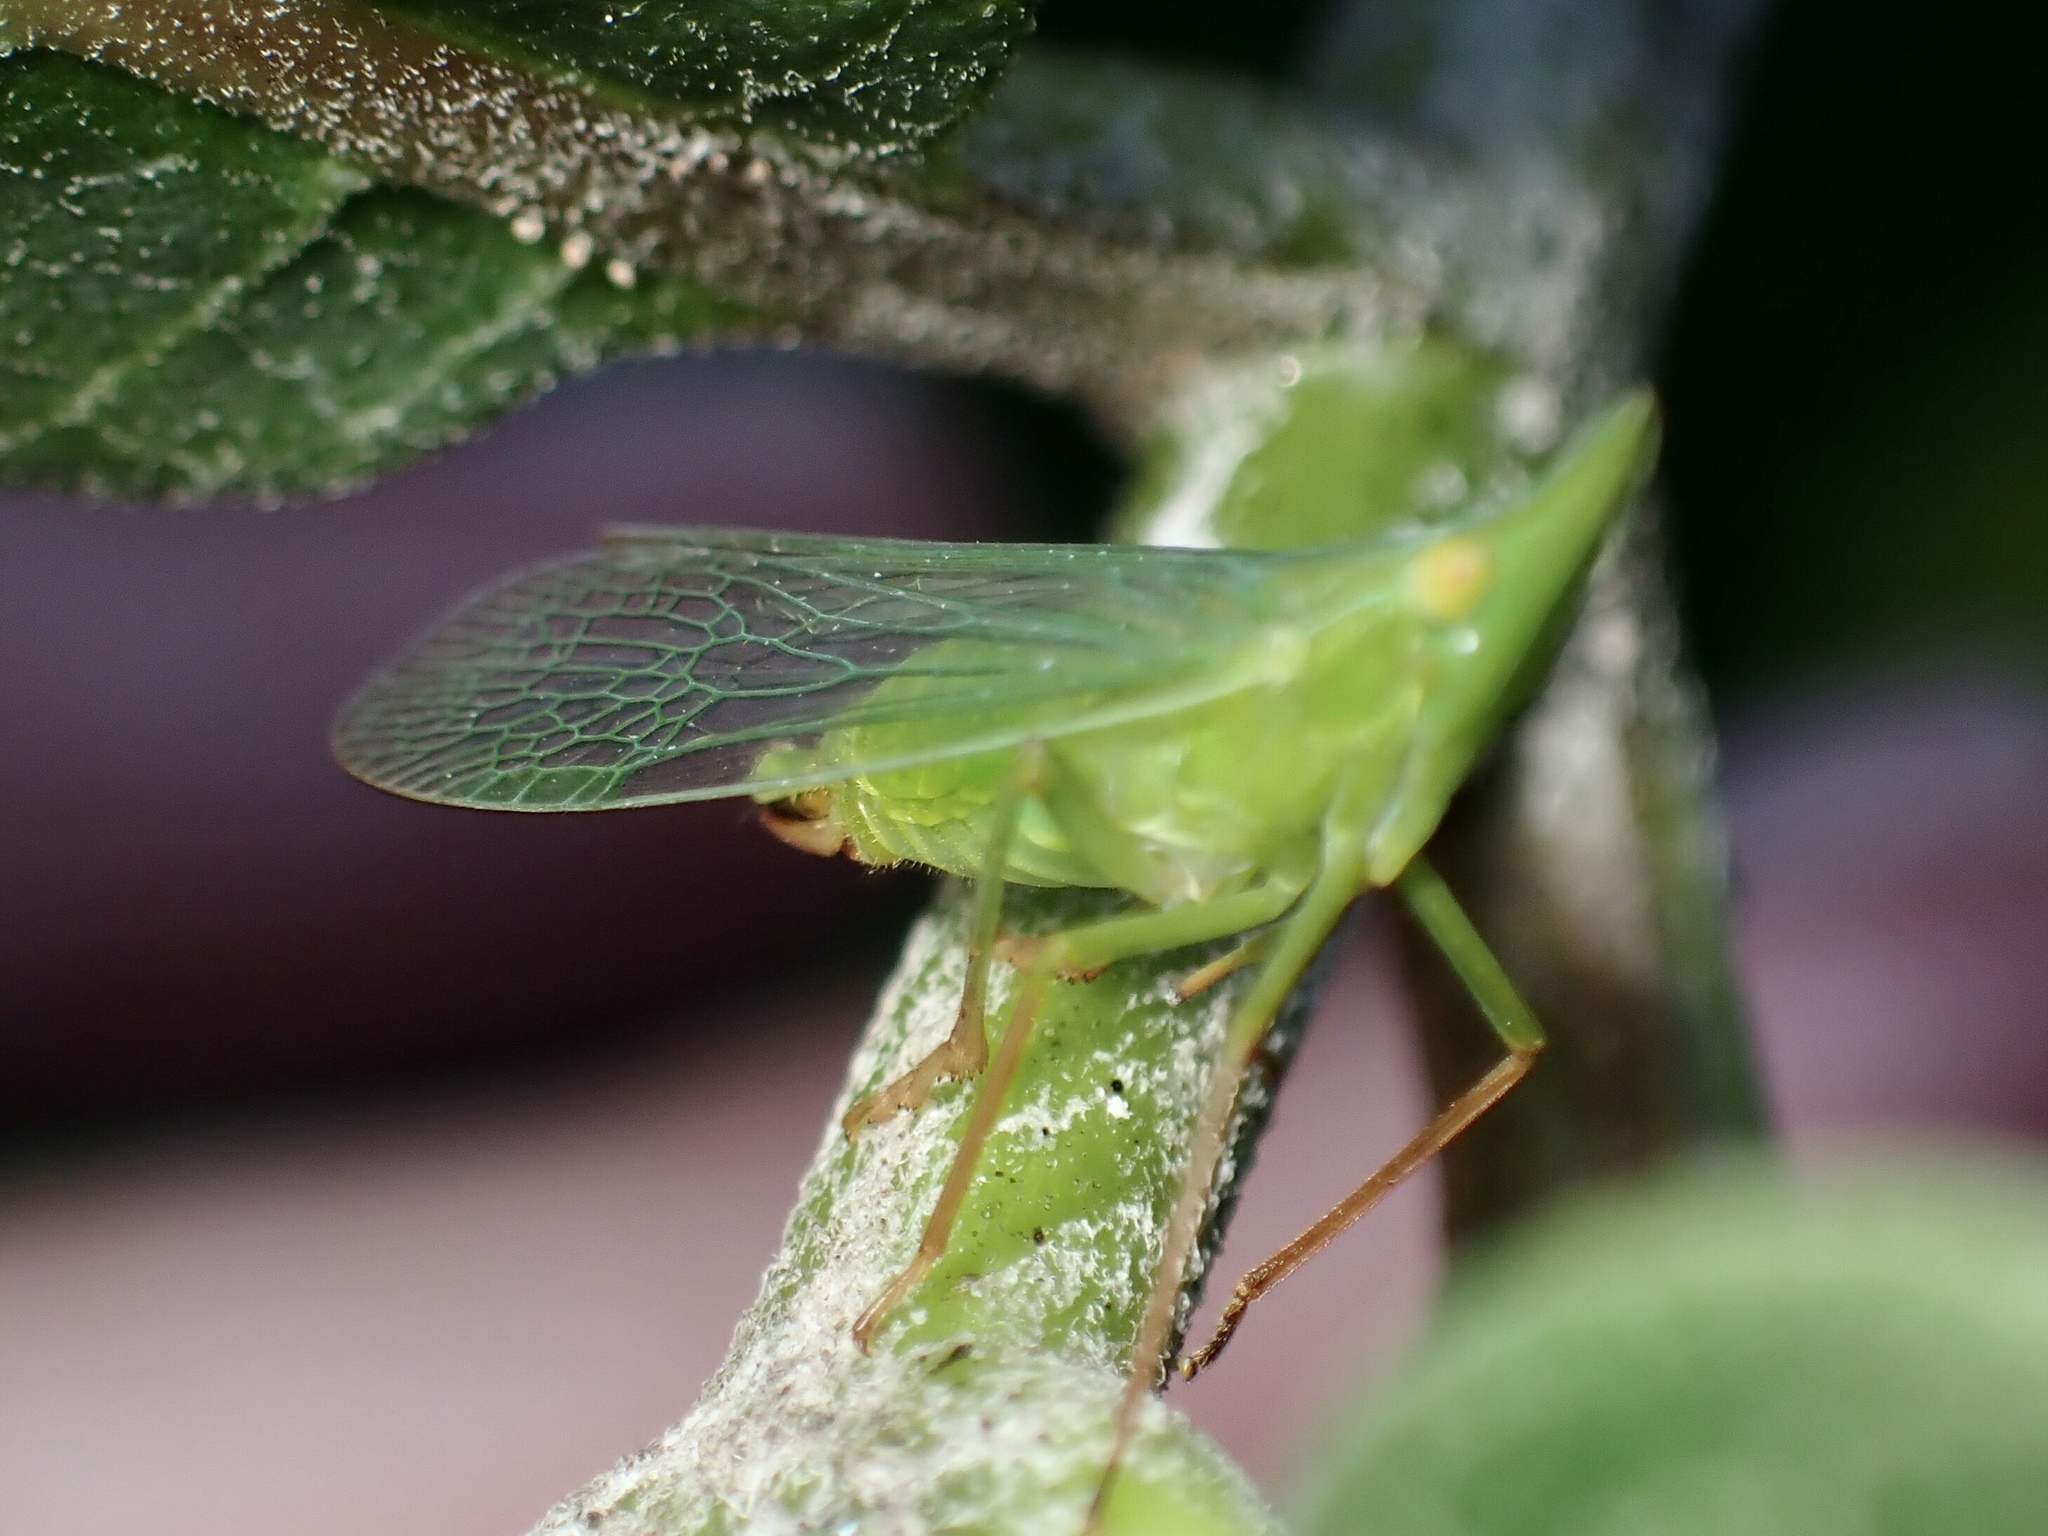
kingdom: Animalia
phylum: Arthropoda
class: Insecta
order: Hemiptera
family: Dictyopharidae
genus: Rhynchomitra
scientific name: Rhynchomitra microrhina
